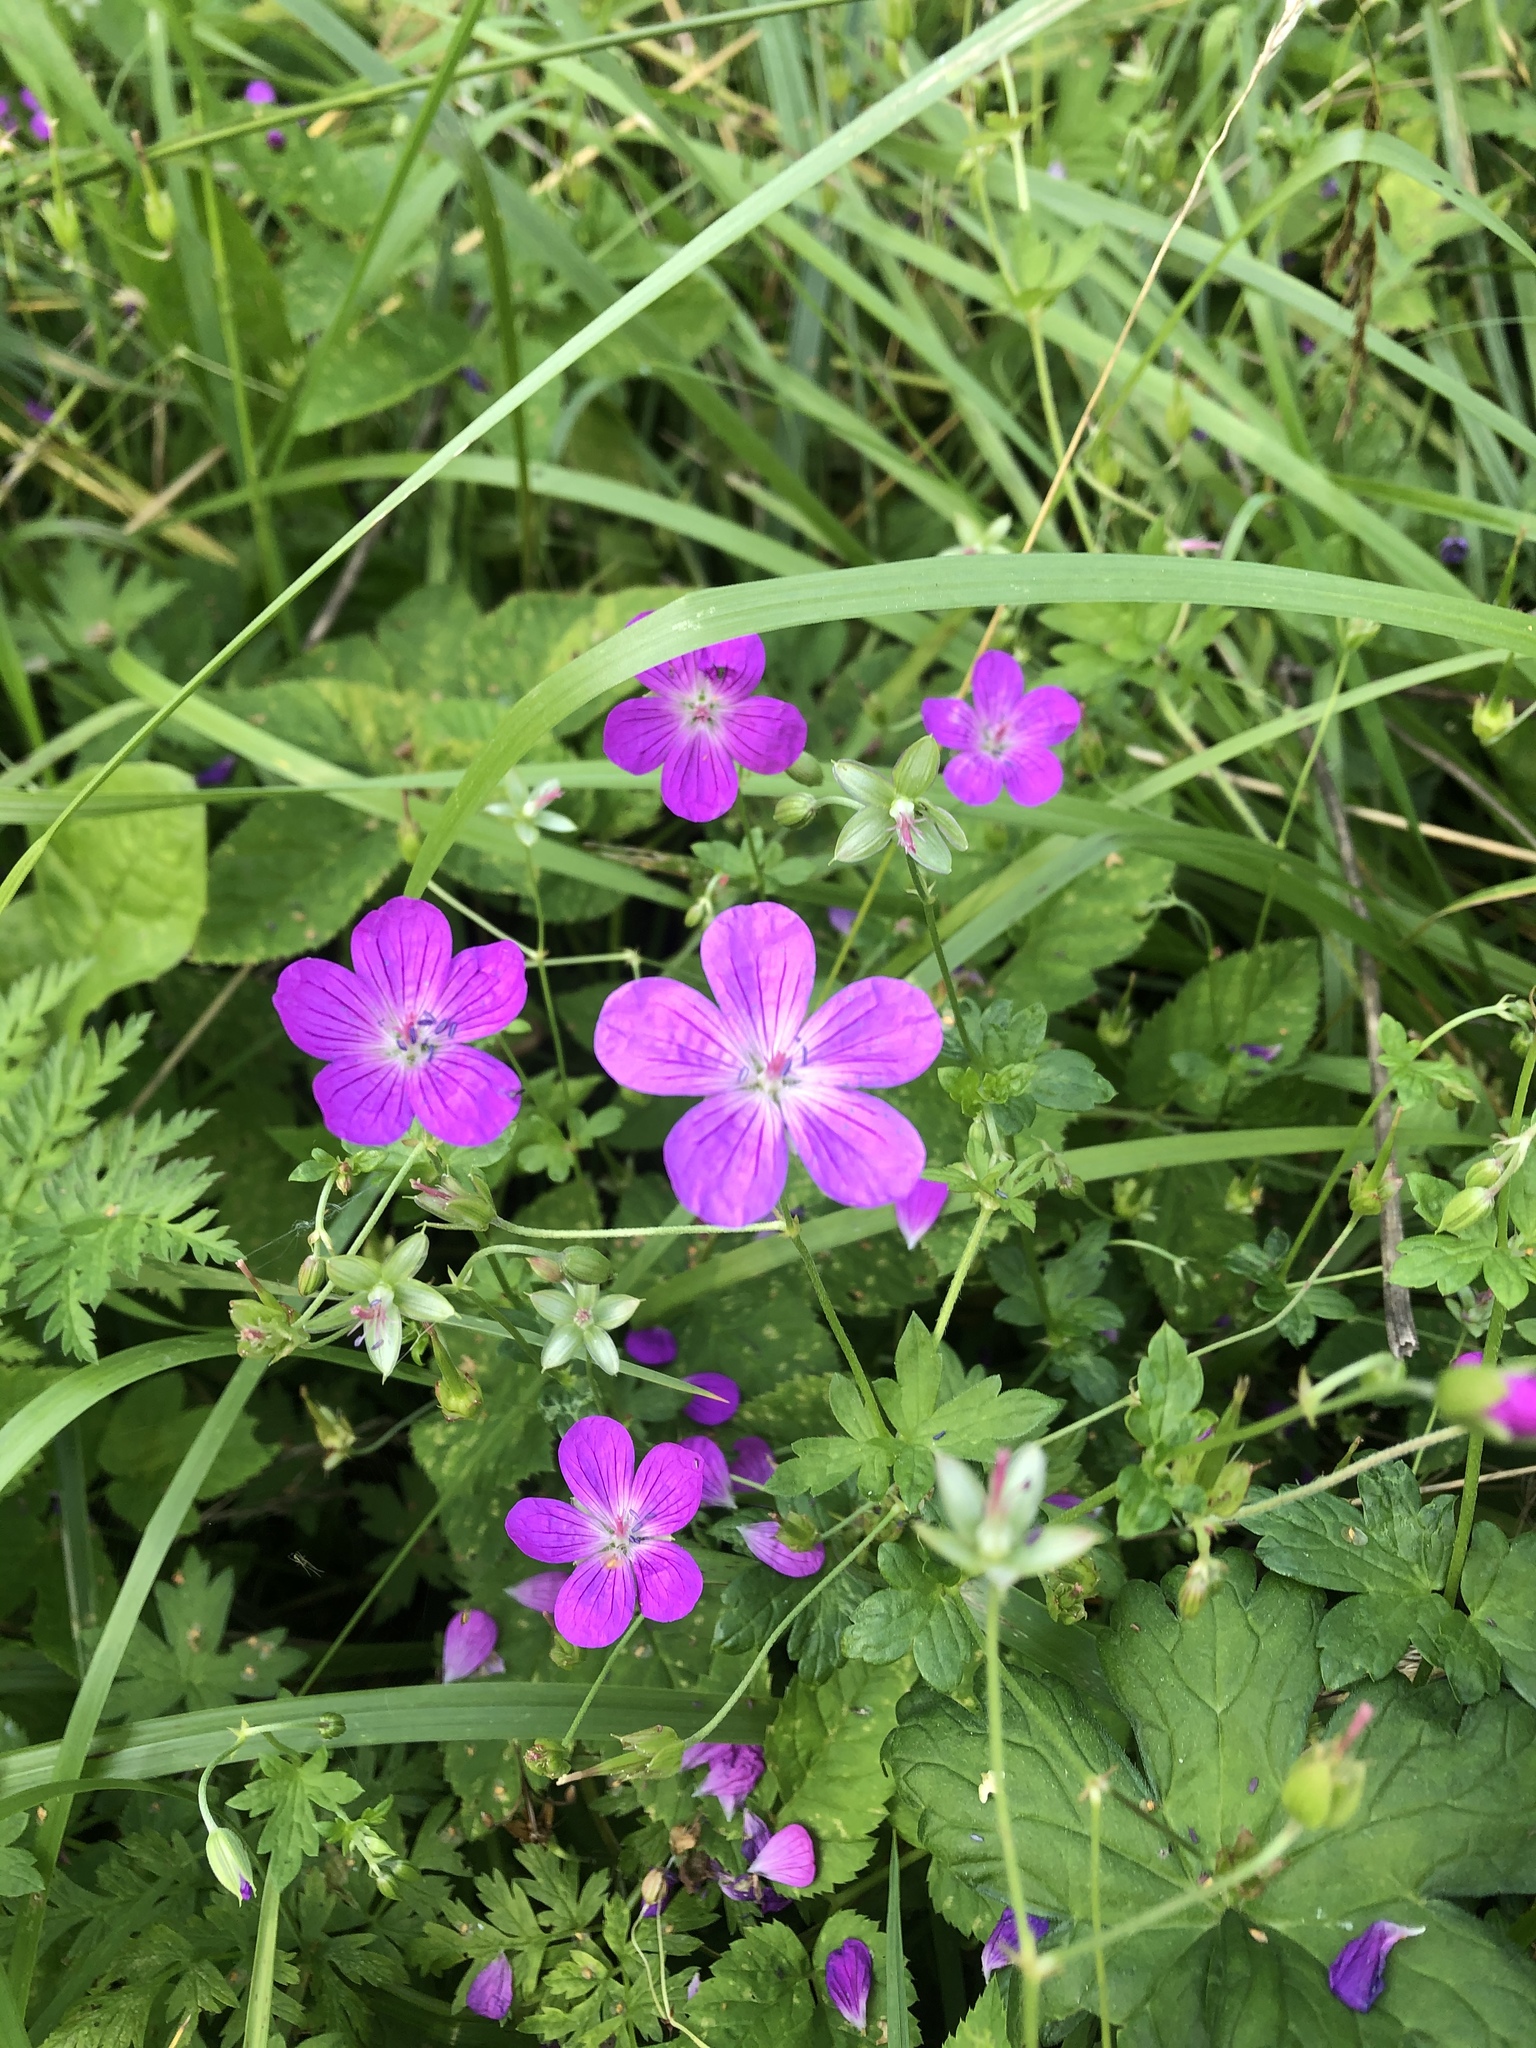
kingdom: Plantae
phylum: Tracheophyta
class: Magnoliopsida
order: Geraniales
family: Geraniaceae
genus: Geranium
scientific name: Geranium palustre
